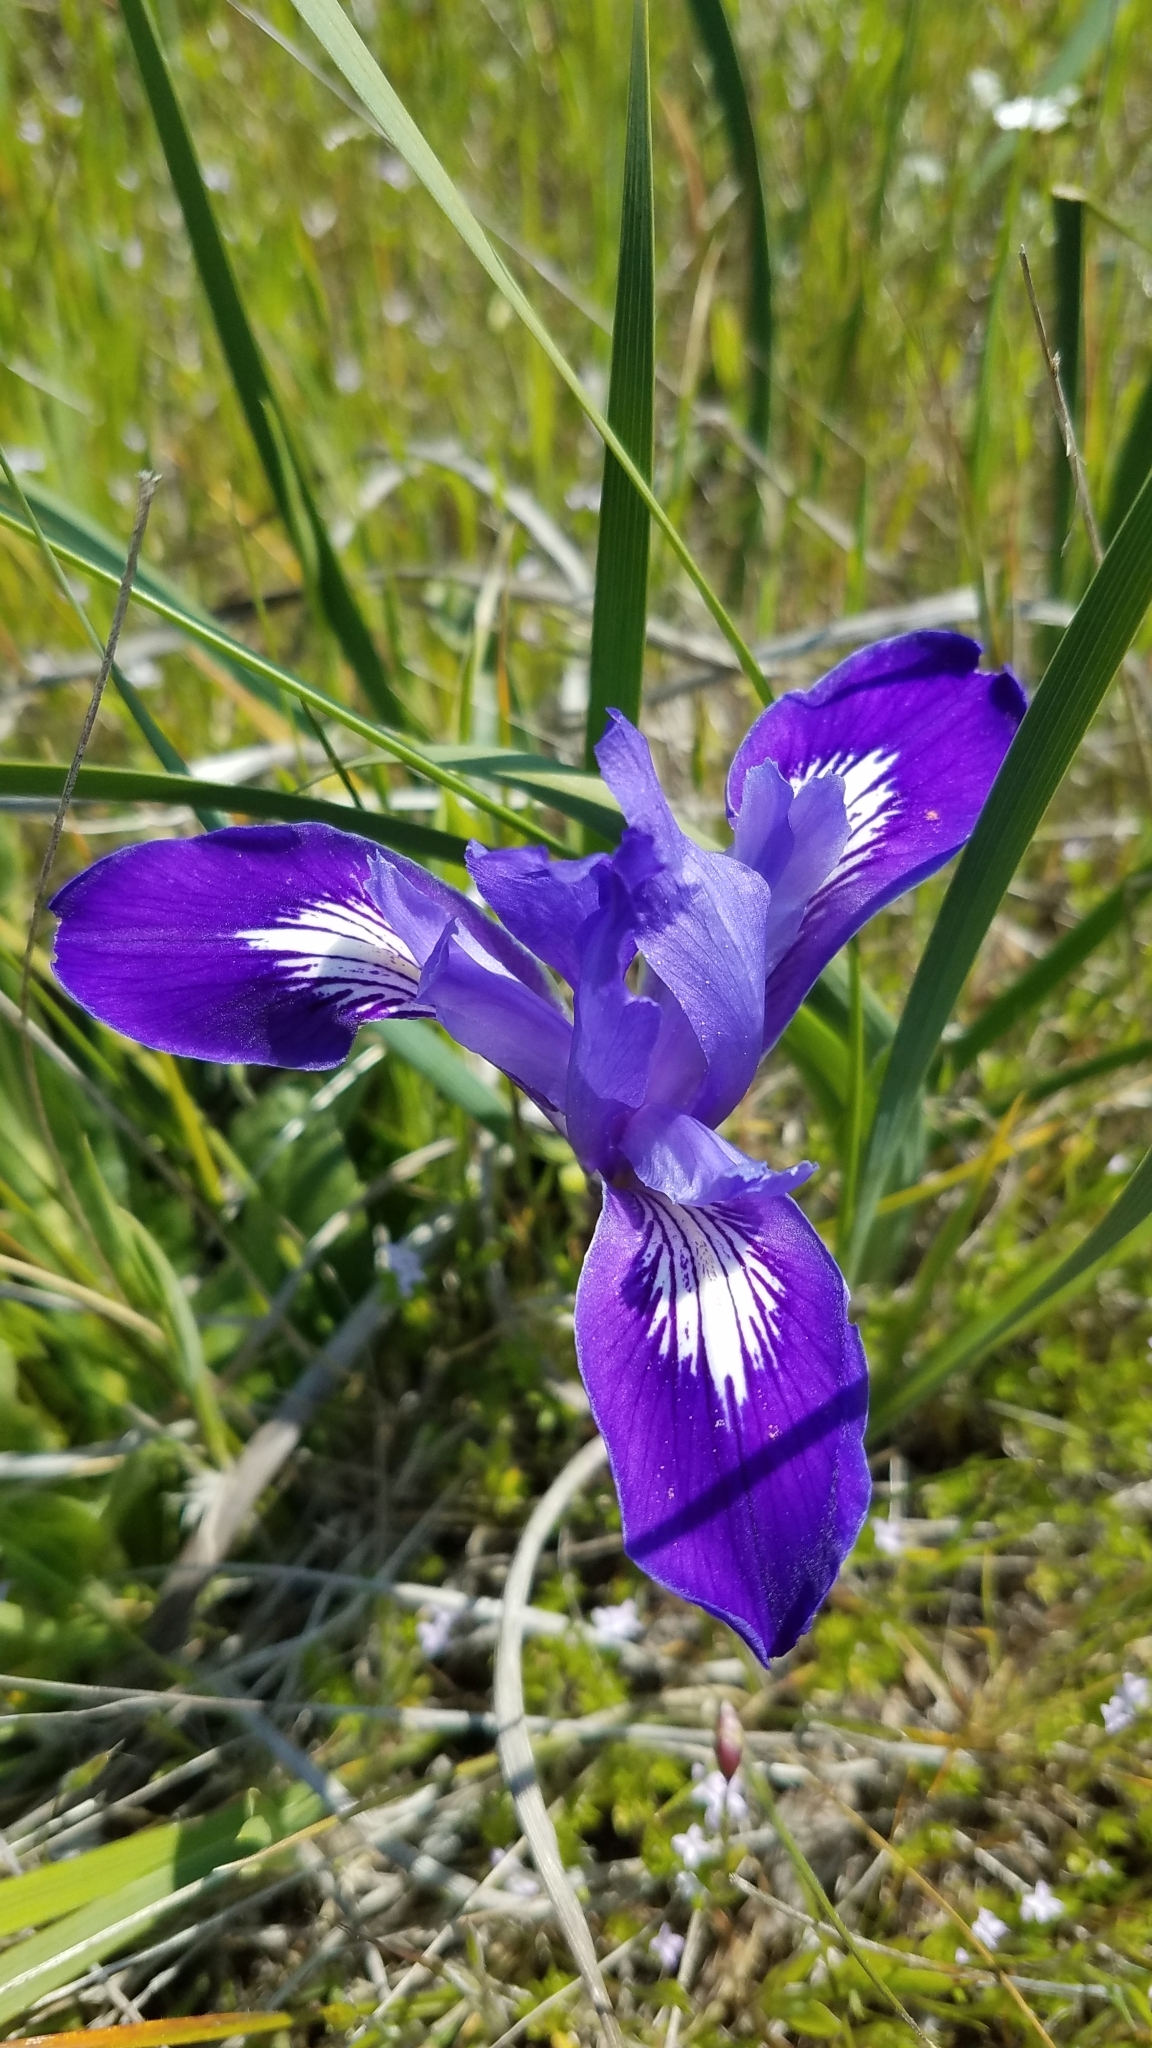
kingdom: Plantae
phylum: Tracheophyta
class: Liliopsida
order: Asparagales
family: Iridaceae
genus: Iris
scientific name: Iris macrosiphon
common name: Ground iris
